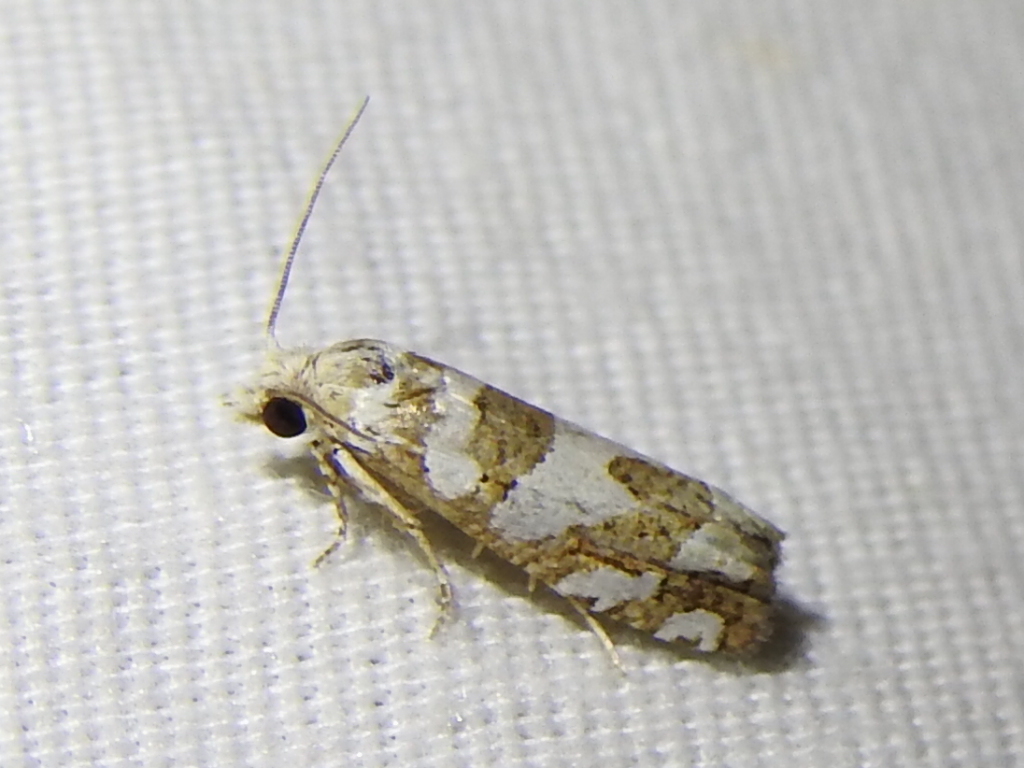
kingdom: Animalia
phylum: Arthropoda
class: Insecta
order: Lepidoptera
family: Tortricidae
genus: Pelochrista
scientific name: Pelochrista robinsonana
